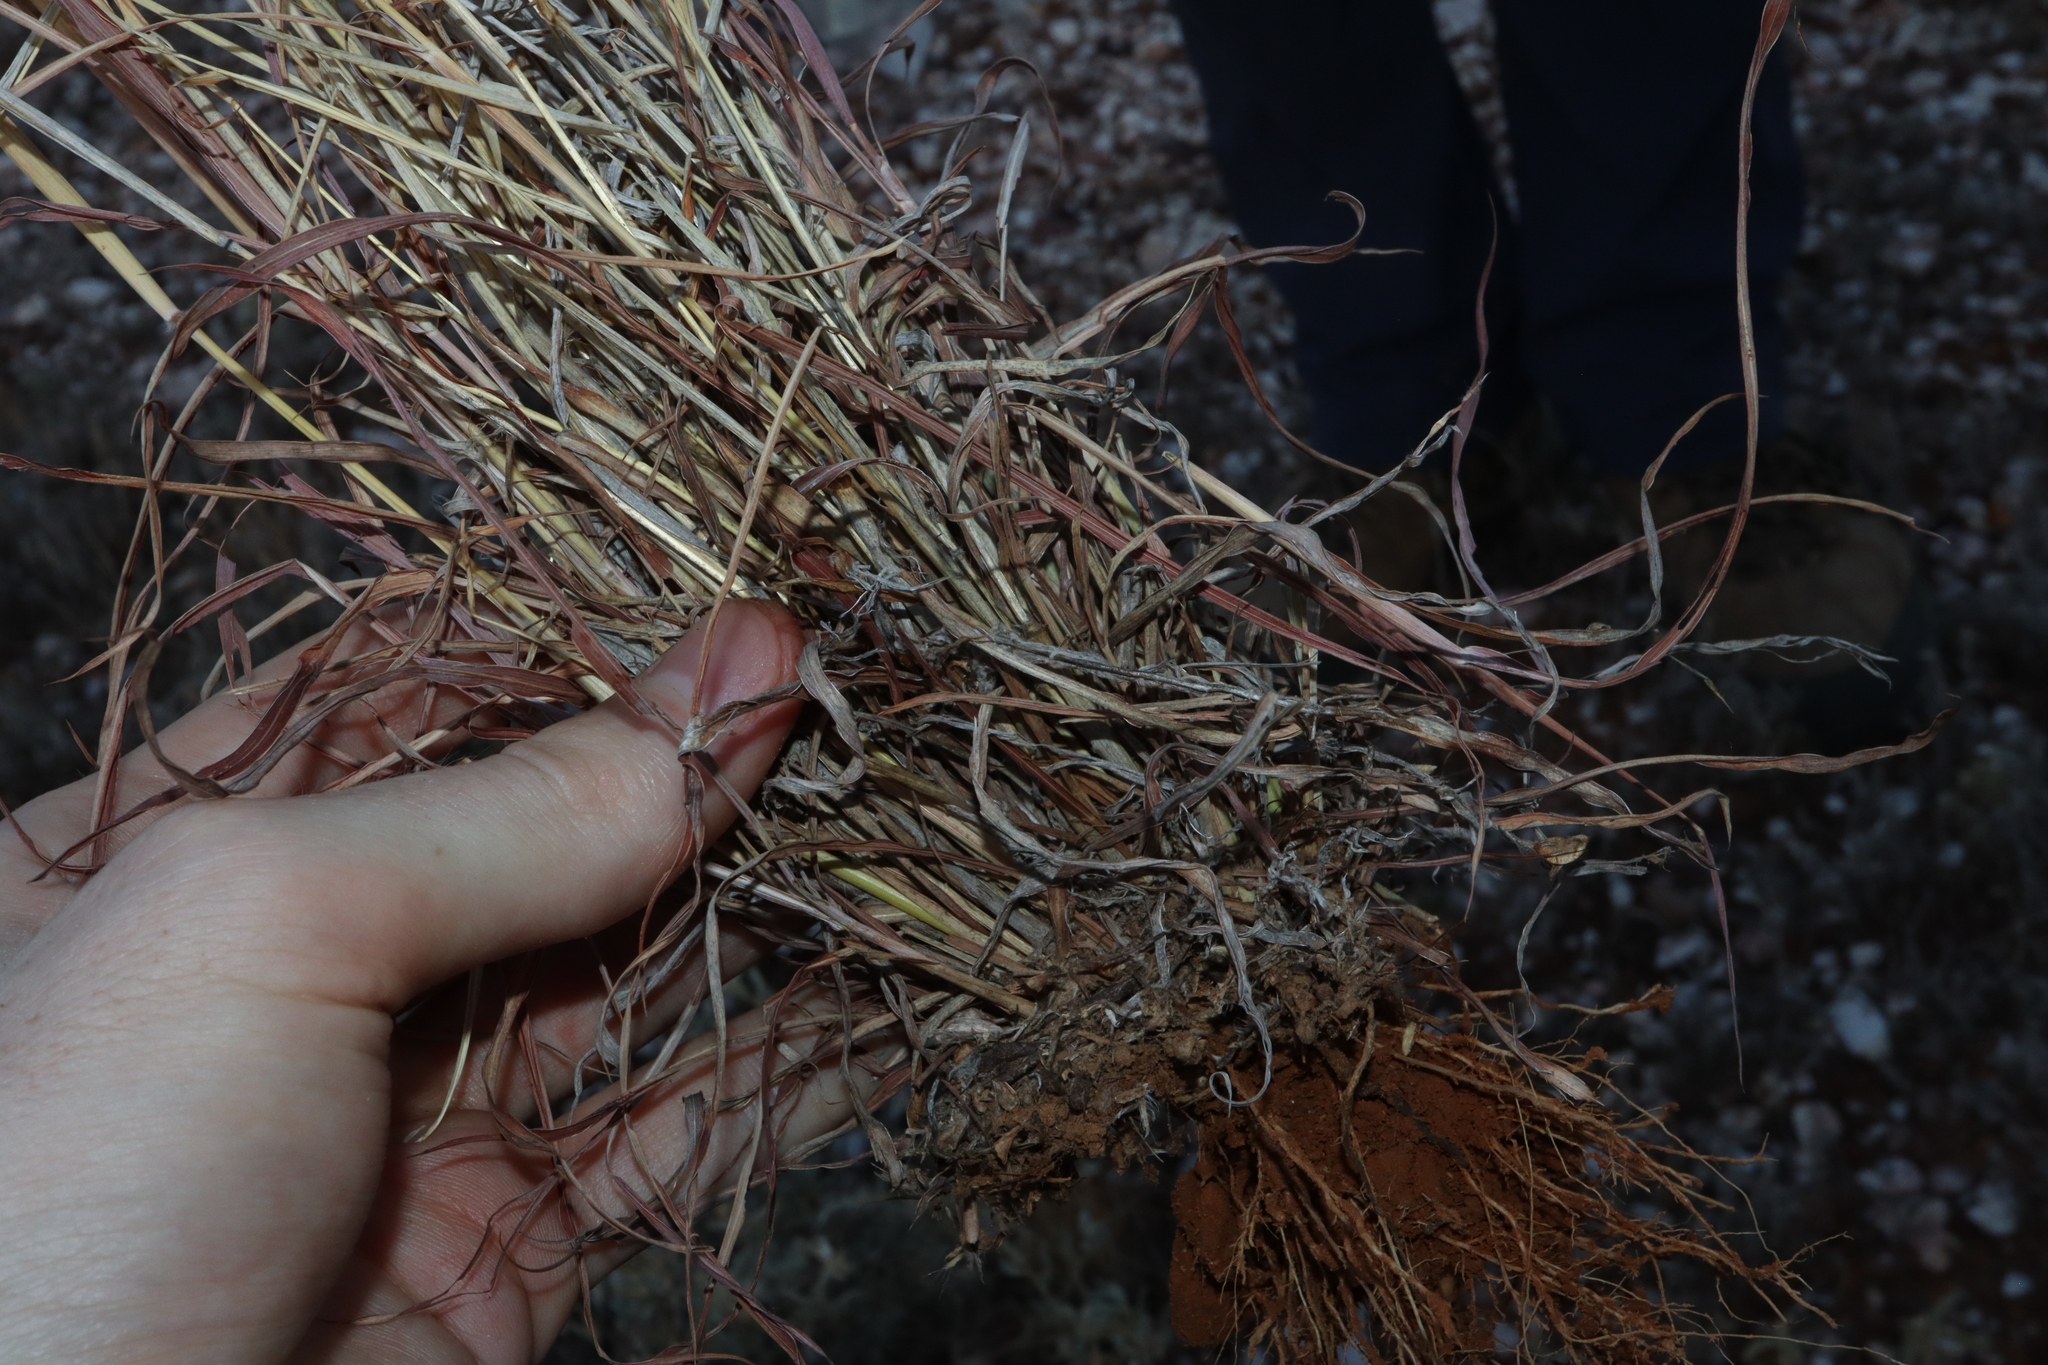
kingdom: Plantae
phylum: Tracheophyta
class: Liliopsida
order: Poales
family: Poaceae
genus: Dichanthium
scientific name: Dichanthium sericeum
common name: Silky bluestem
